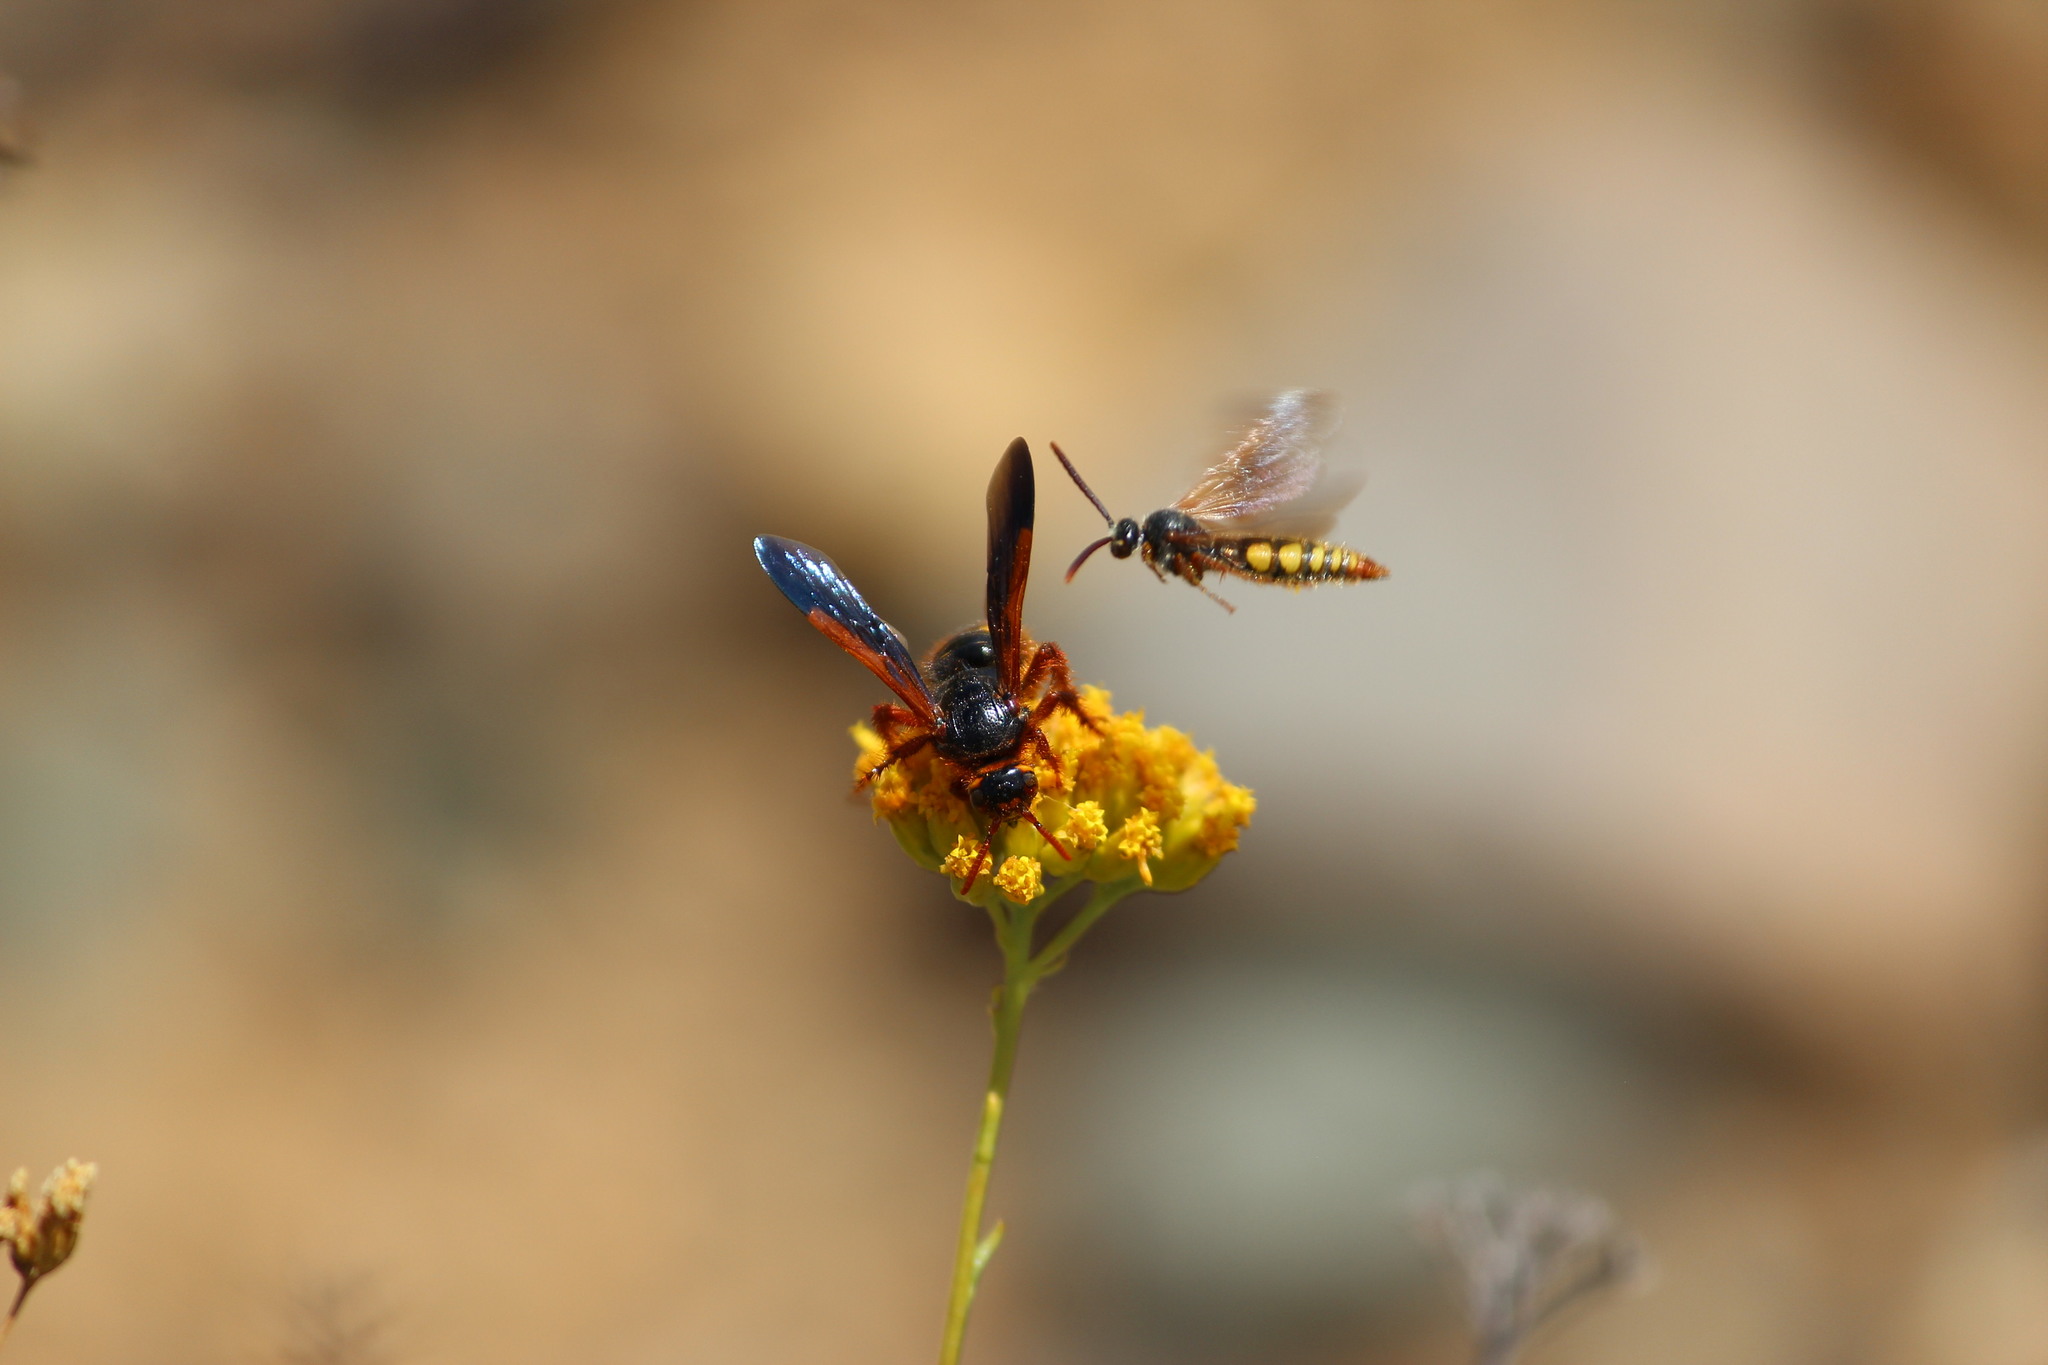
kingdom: Animalia
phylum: Arthropoda
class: Insecta
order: Hymenoptera
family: Scoliidae
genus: Scolia
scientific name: Scolia
